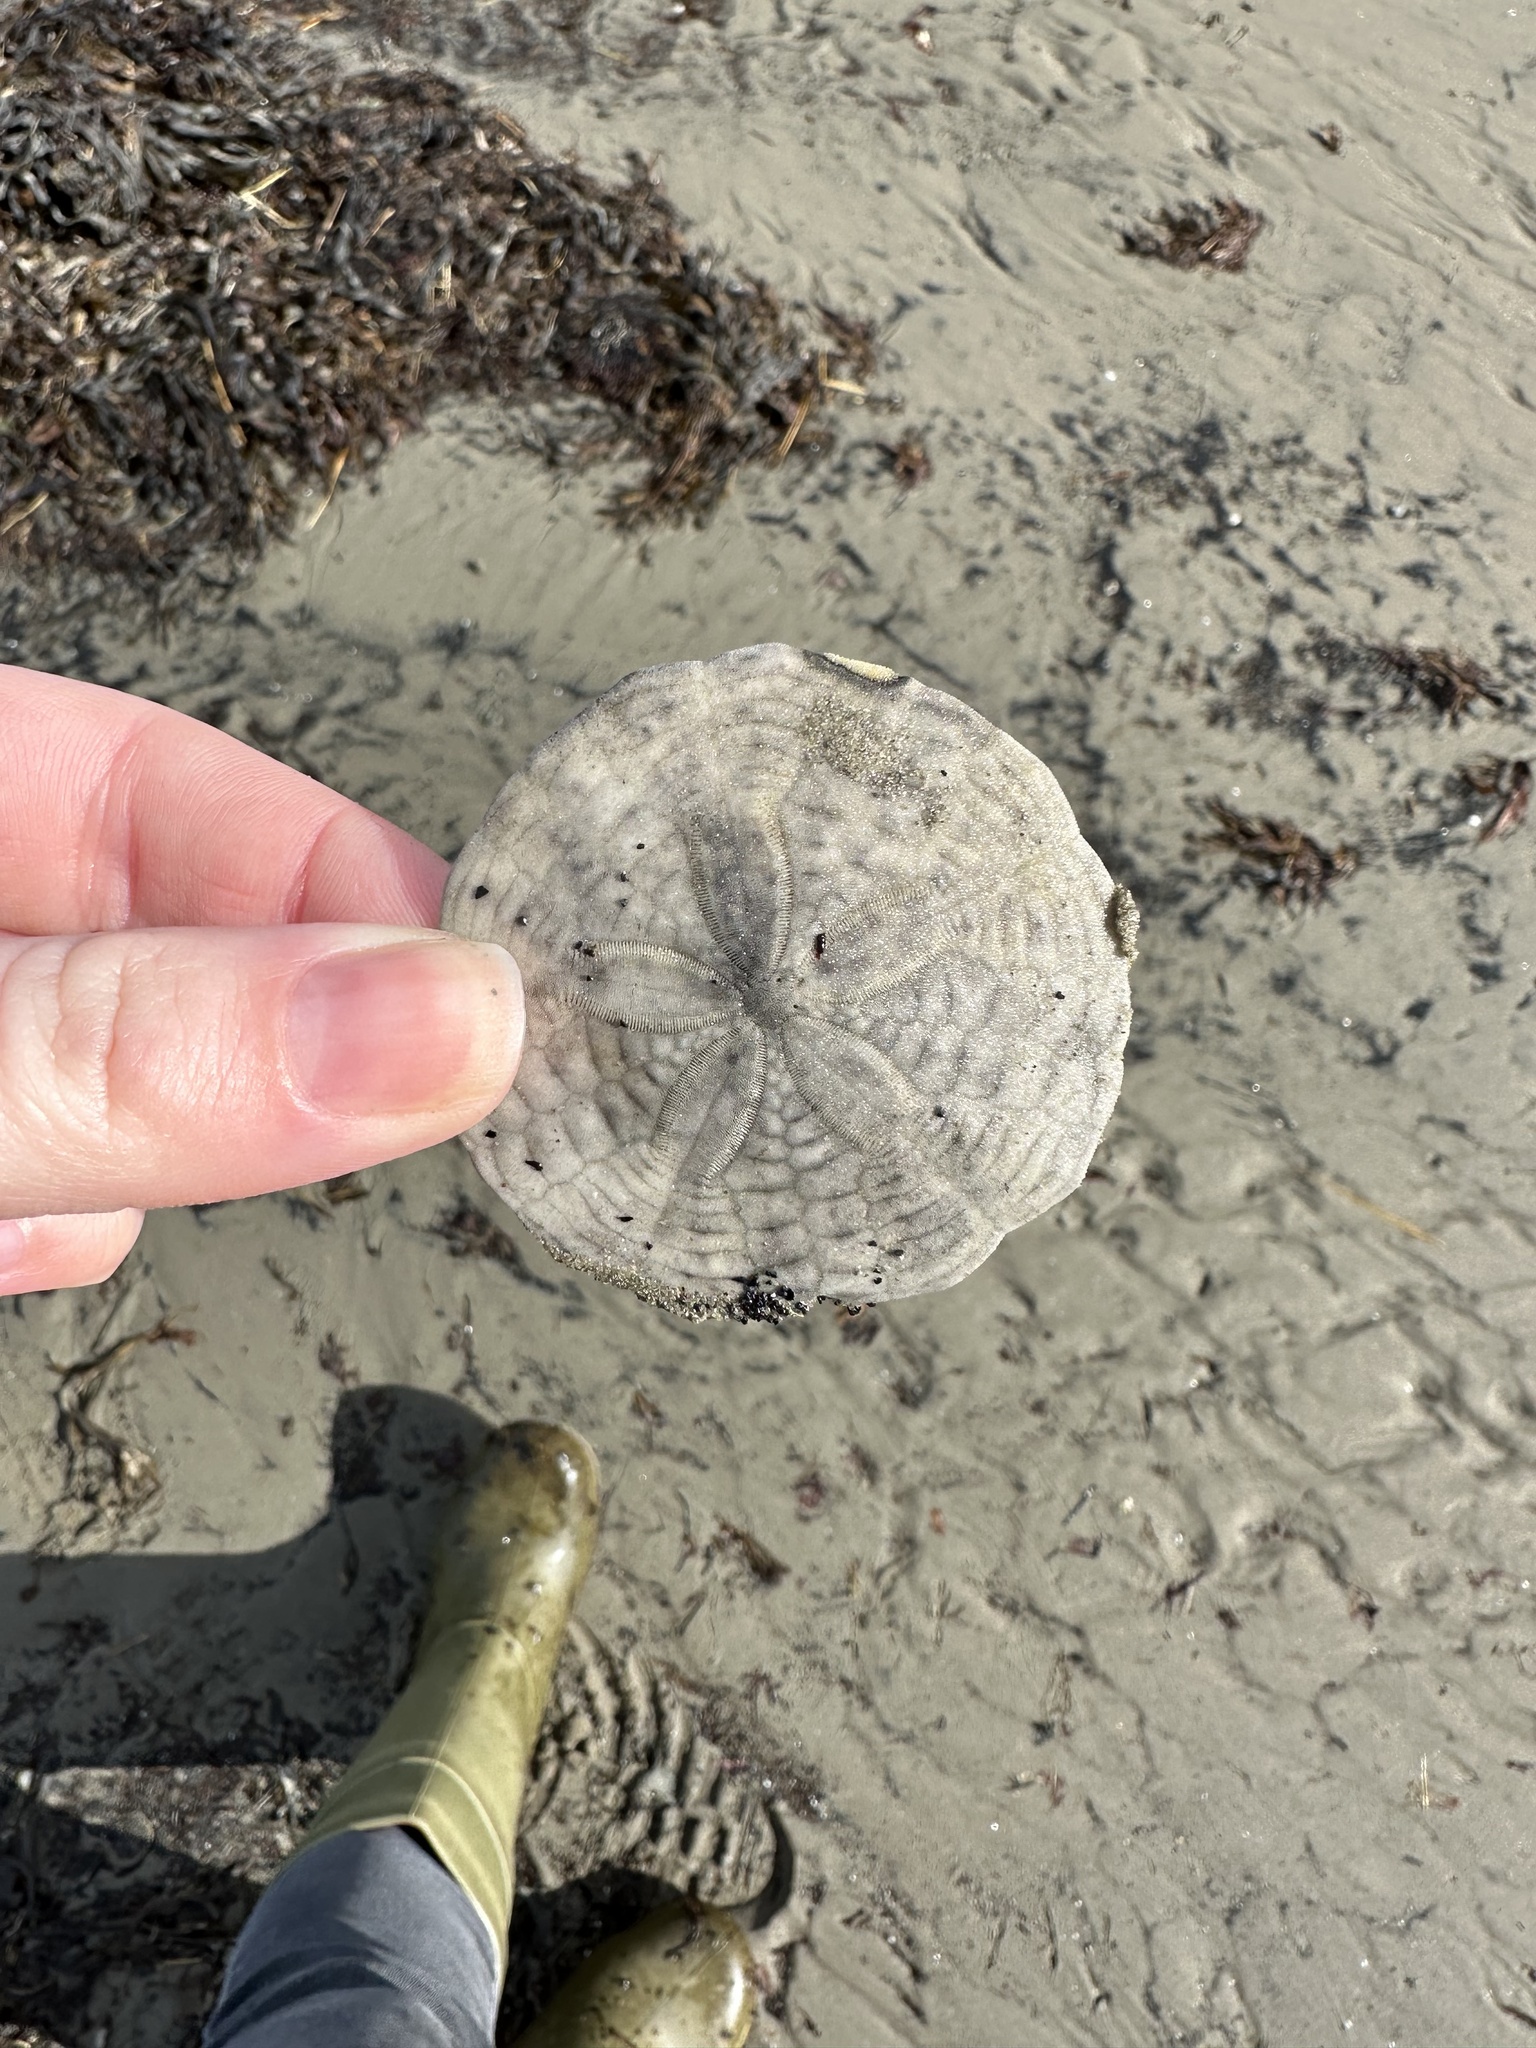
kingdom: Animalia
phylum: Echinodermata
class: Echinoidea
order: Echinolampadacea
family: Echinarachniidae
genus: Echinarachnius
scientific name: Echinarachnius parma
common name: Common sand dollar
